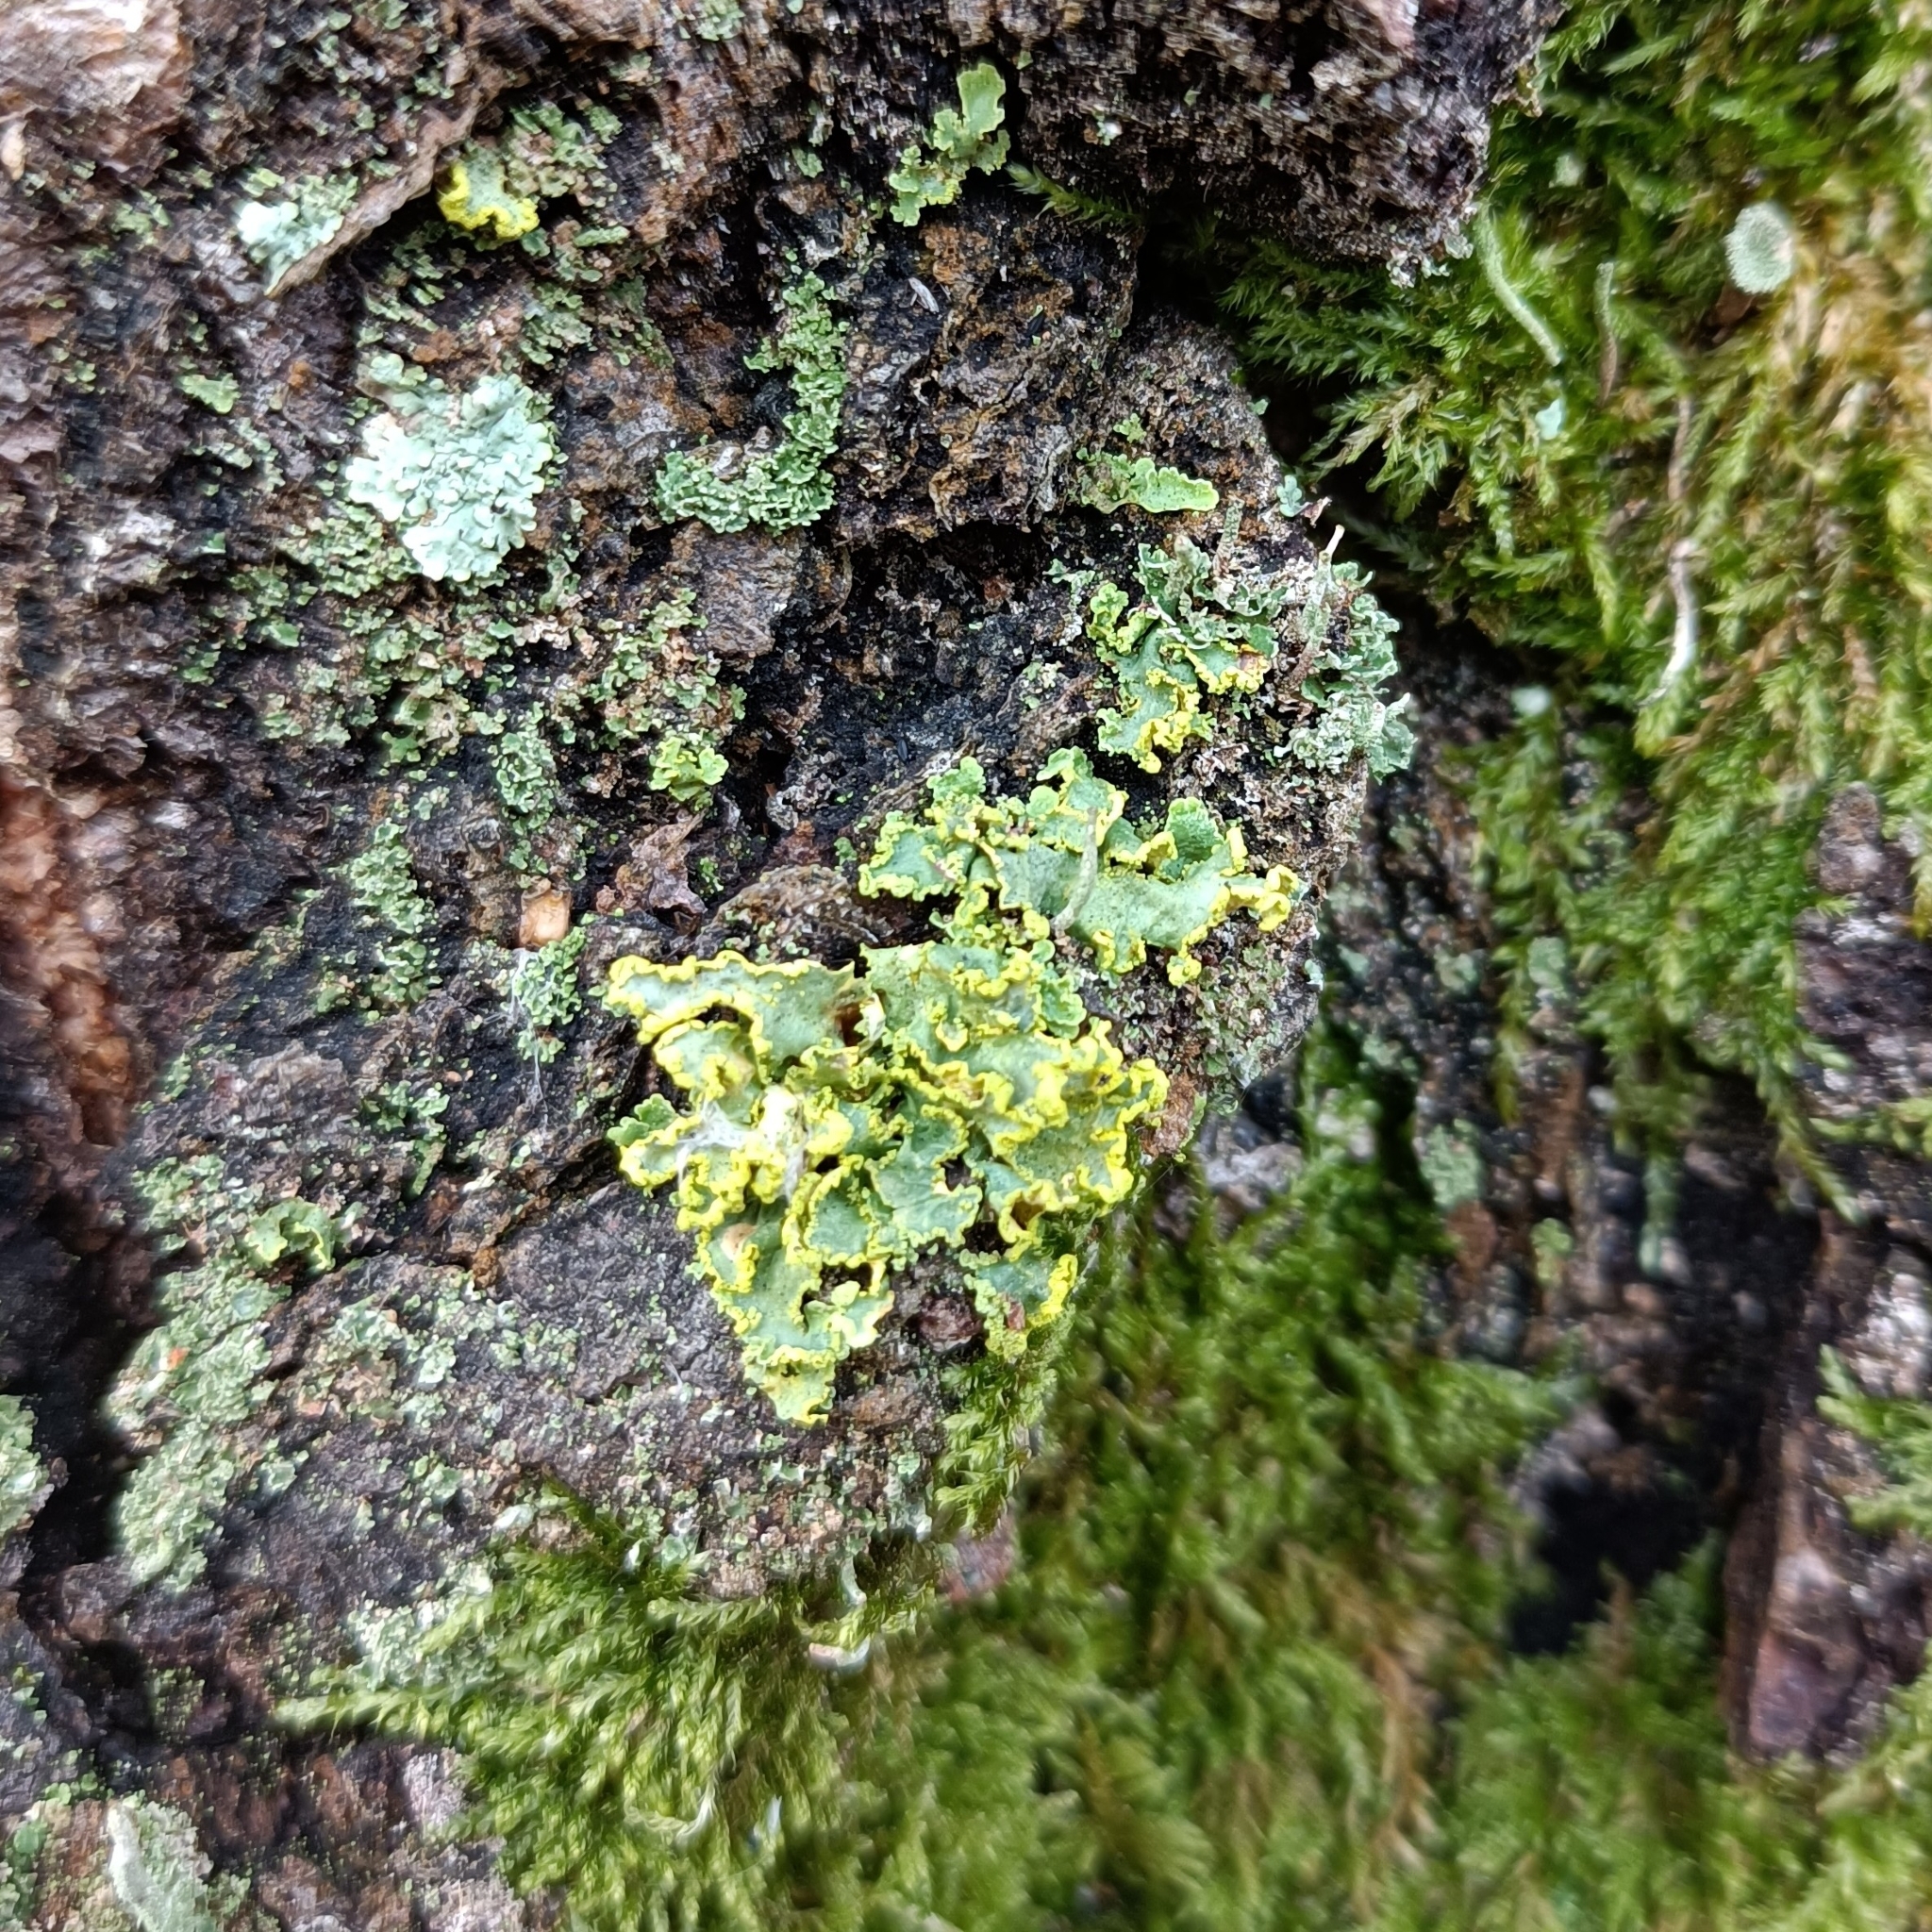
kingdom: Fungi
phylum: Ascomycota
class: Lecanoromycetes
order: Lecanorales
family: Parmeliaceae
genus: Vulpicida
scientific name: Vulpicida pinastri
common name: Powdered sunshine lichen
